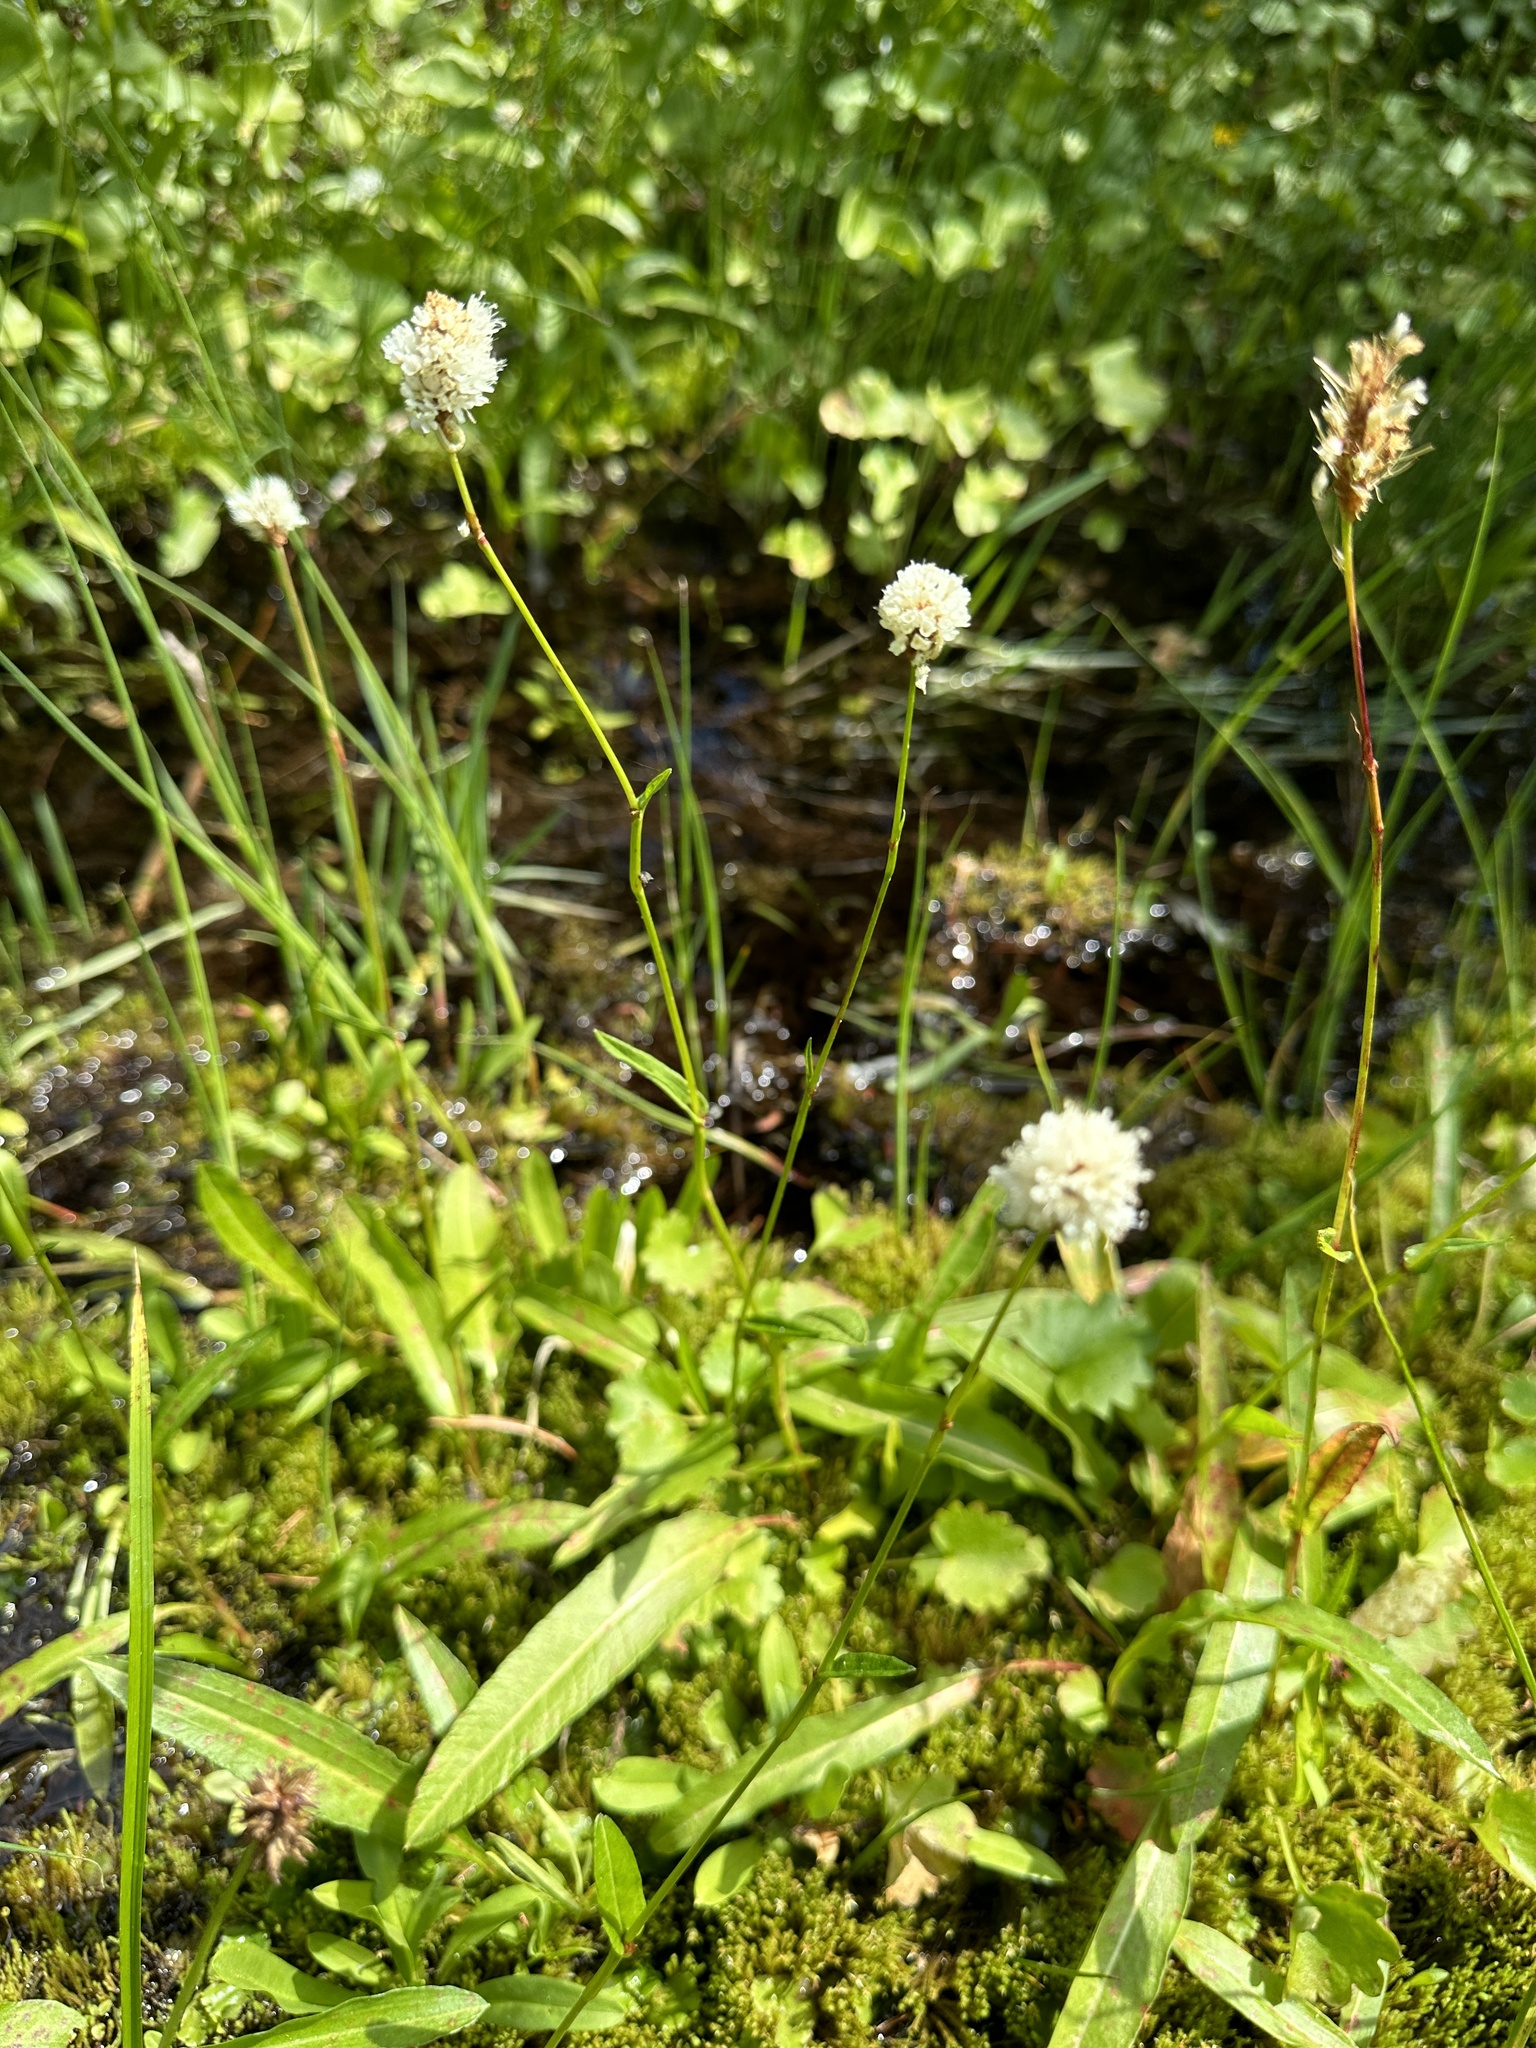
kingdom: Plantae
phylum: Tracheophyta
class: Magnoliopsida
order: Caryophyllales
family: Polygonaceae
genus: Bistorta
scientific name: Bistorta bistortoides
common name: American bistort
